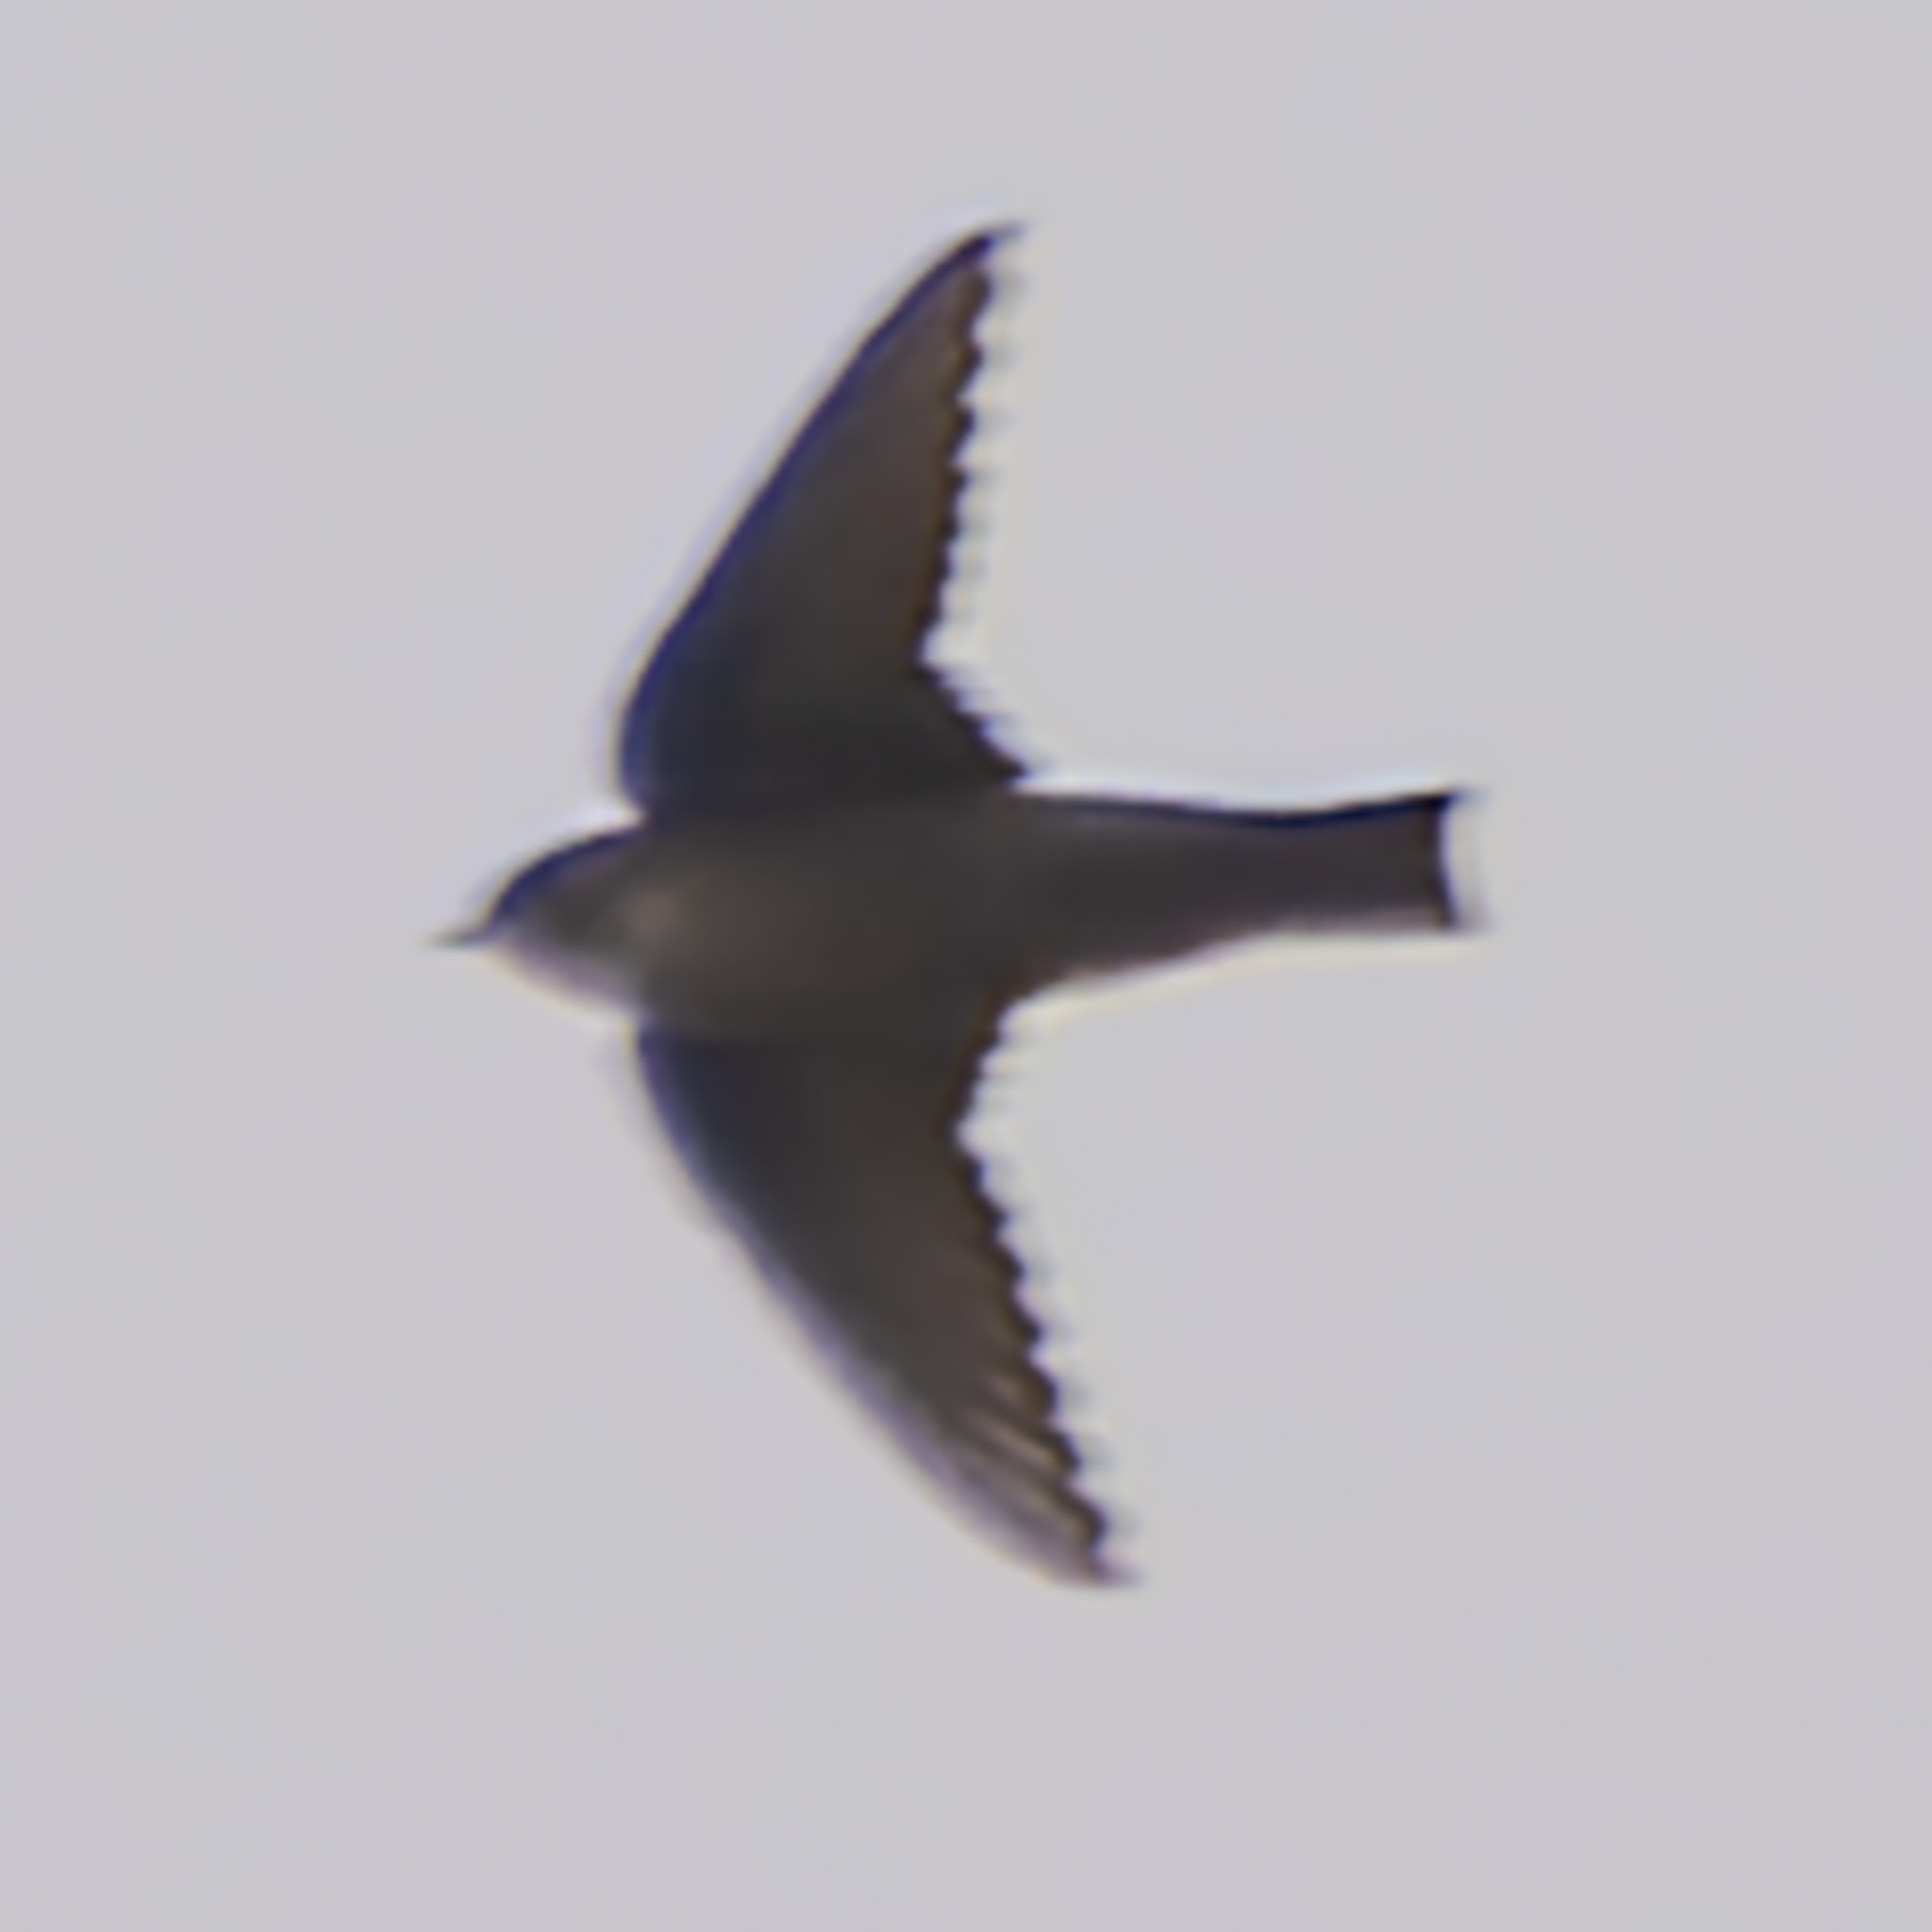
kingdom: Animalia
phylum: Chordata
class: Aves
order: Passeriformes
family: Hirundinidae
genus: Ptyonoprogne
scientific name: Ptyonoprogne rupestris
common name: Eurasian crag martin
